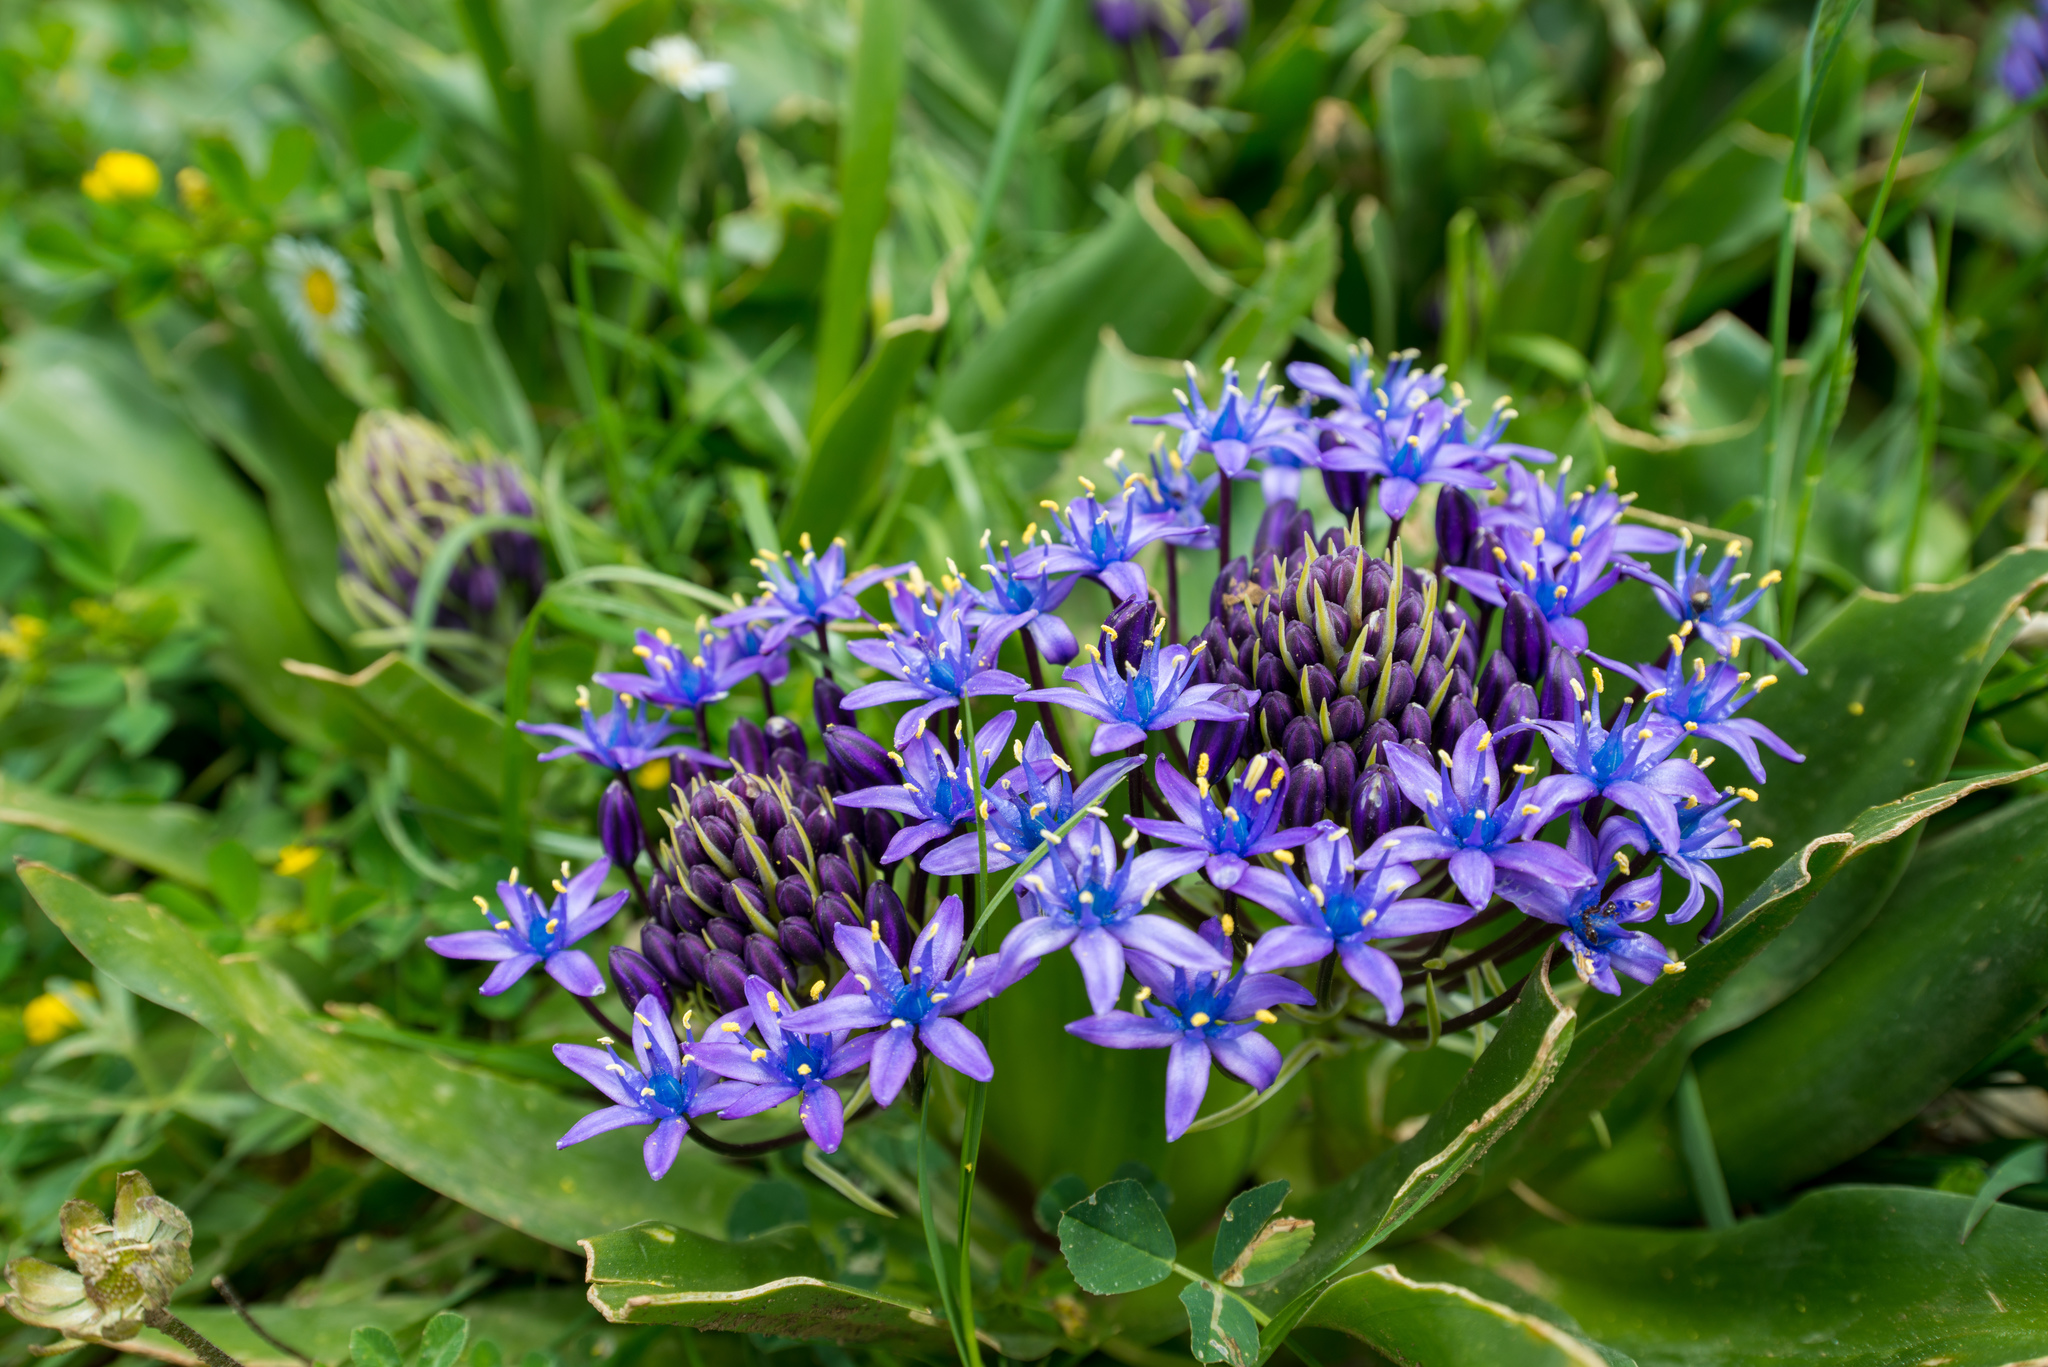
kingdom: Plantae
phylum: Tracheophyta
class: Liliopsida
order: Asparagales
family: Asparagaceae
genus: Scilla
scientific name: Scilla peruviana
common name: Portuguese squill
